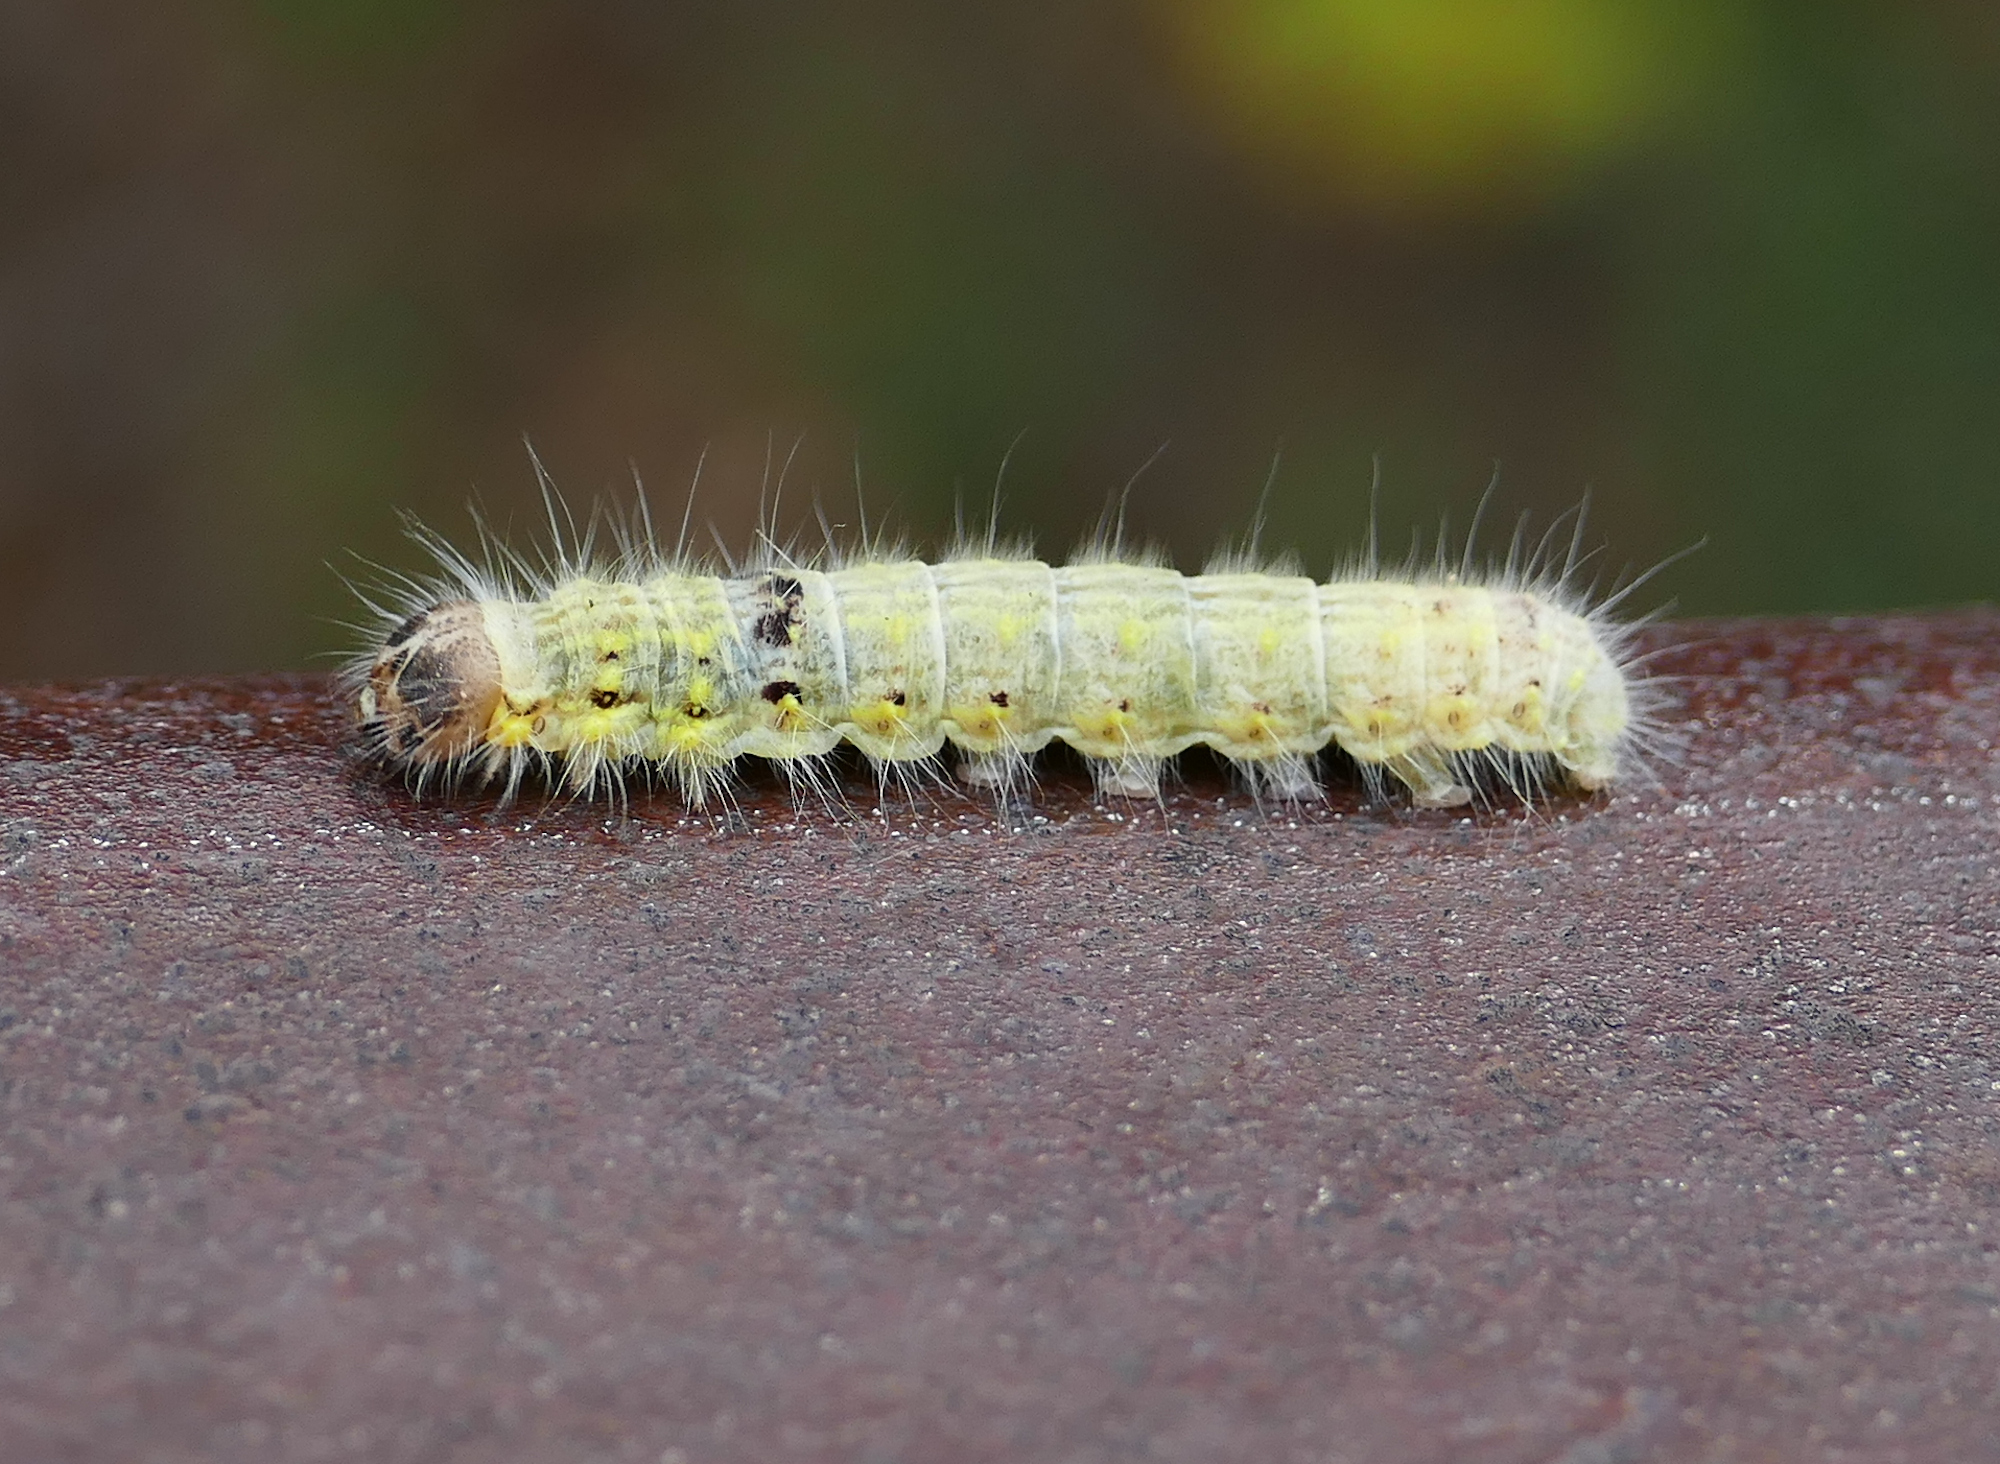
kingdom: Animalia
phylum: Arthropoda
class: Insecta
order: Lepidoptera
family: Notodontidae
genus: Clostera
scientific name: Clostera paraphora
